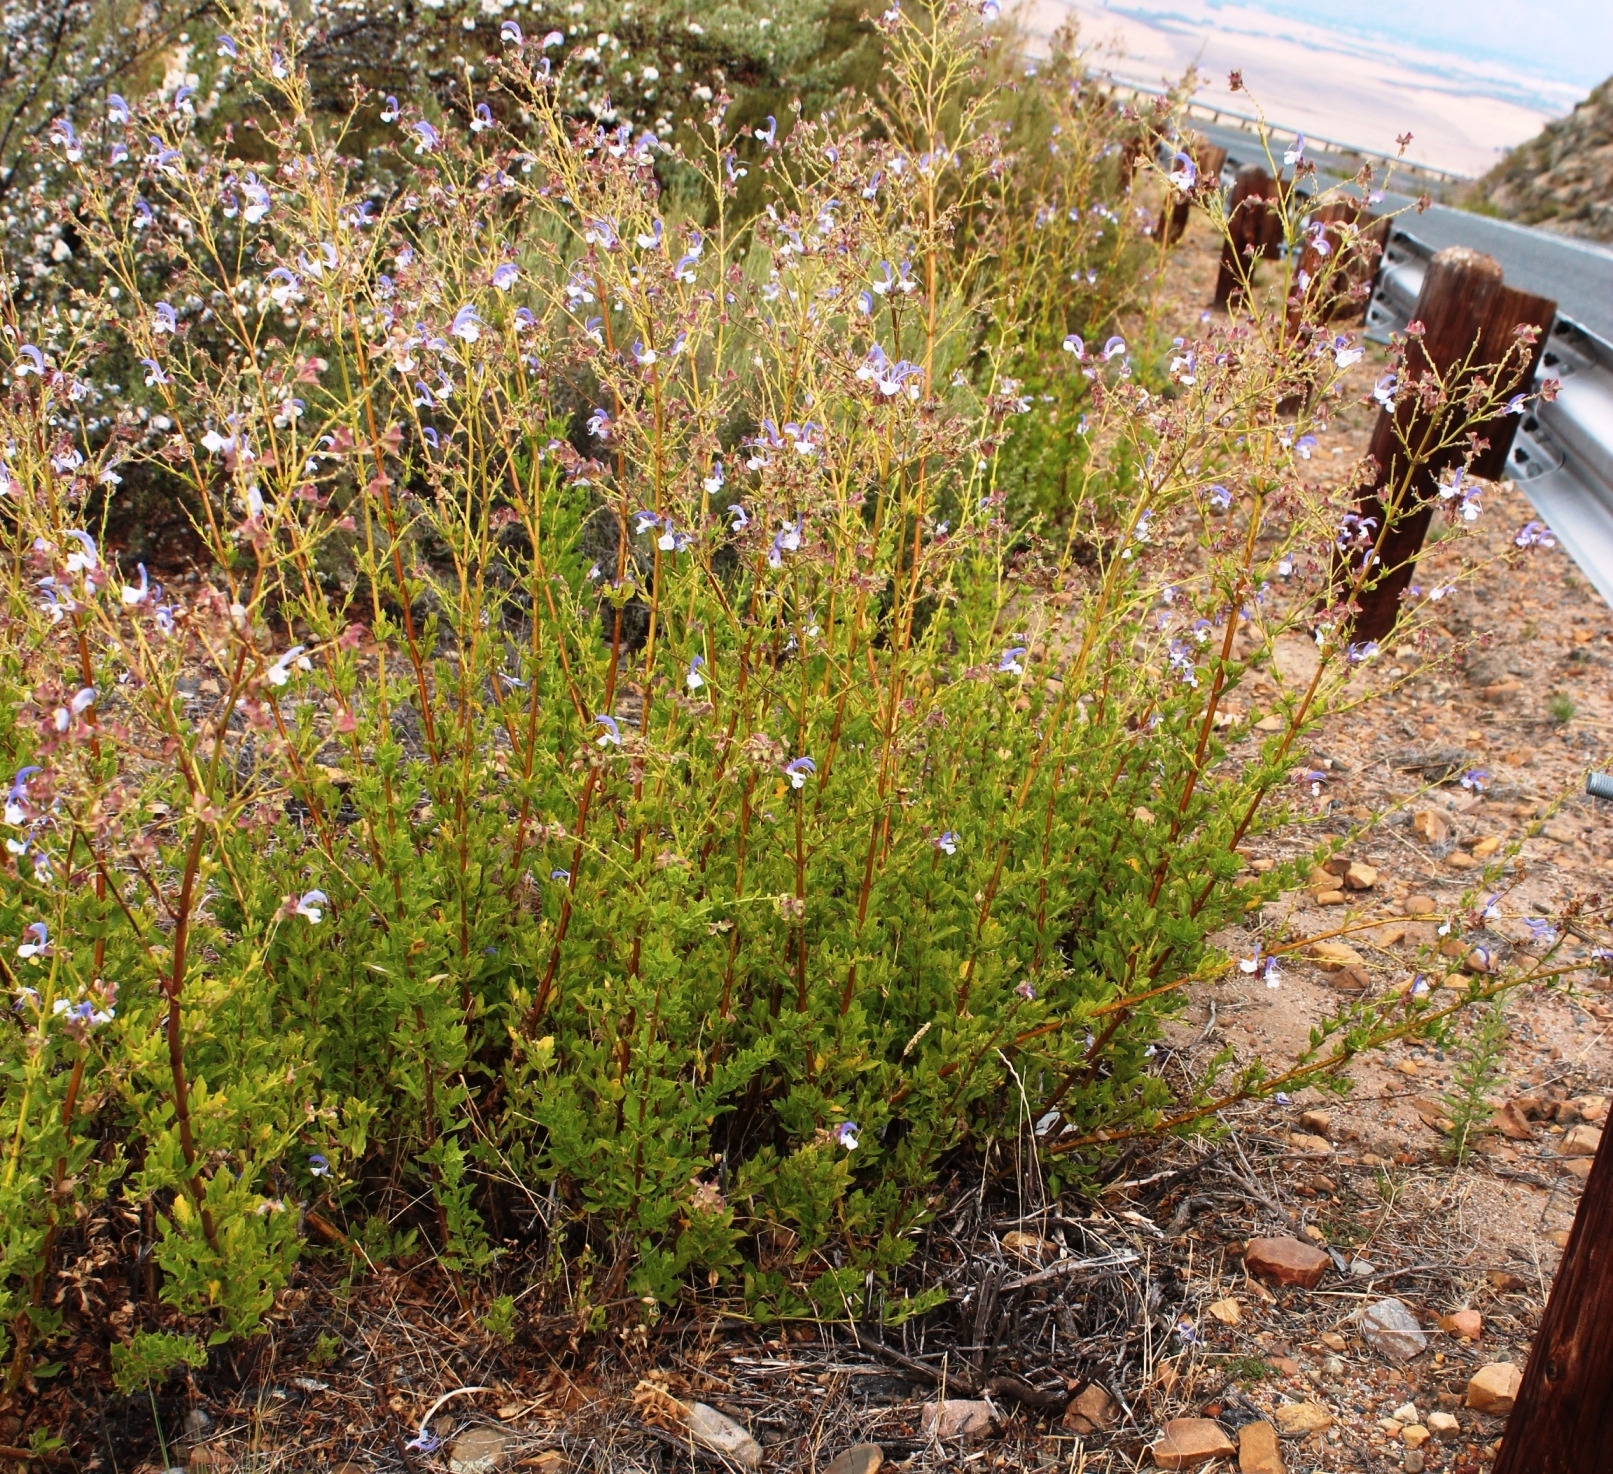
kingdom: Plantae
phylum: Tracheophyta
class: Magnoliopsida
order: Lamiales
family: Lamiaceae
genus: Salvia
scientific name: Salvia chamelaeagnea
